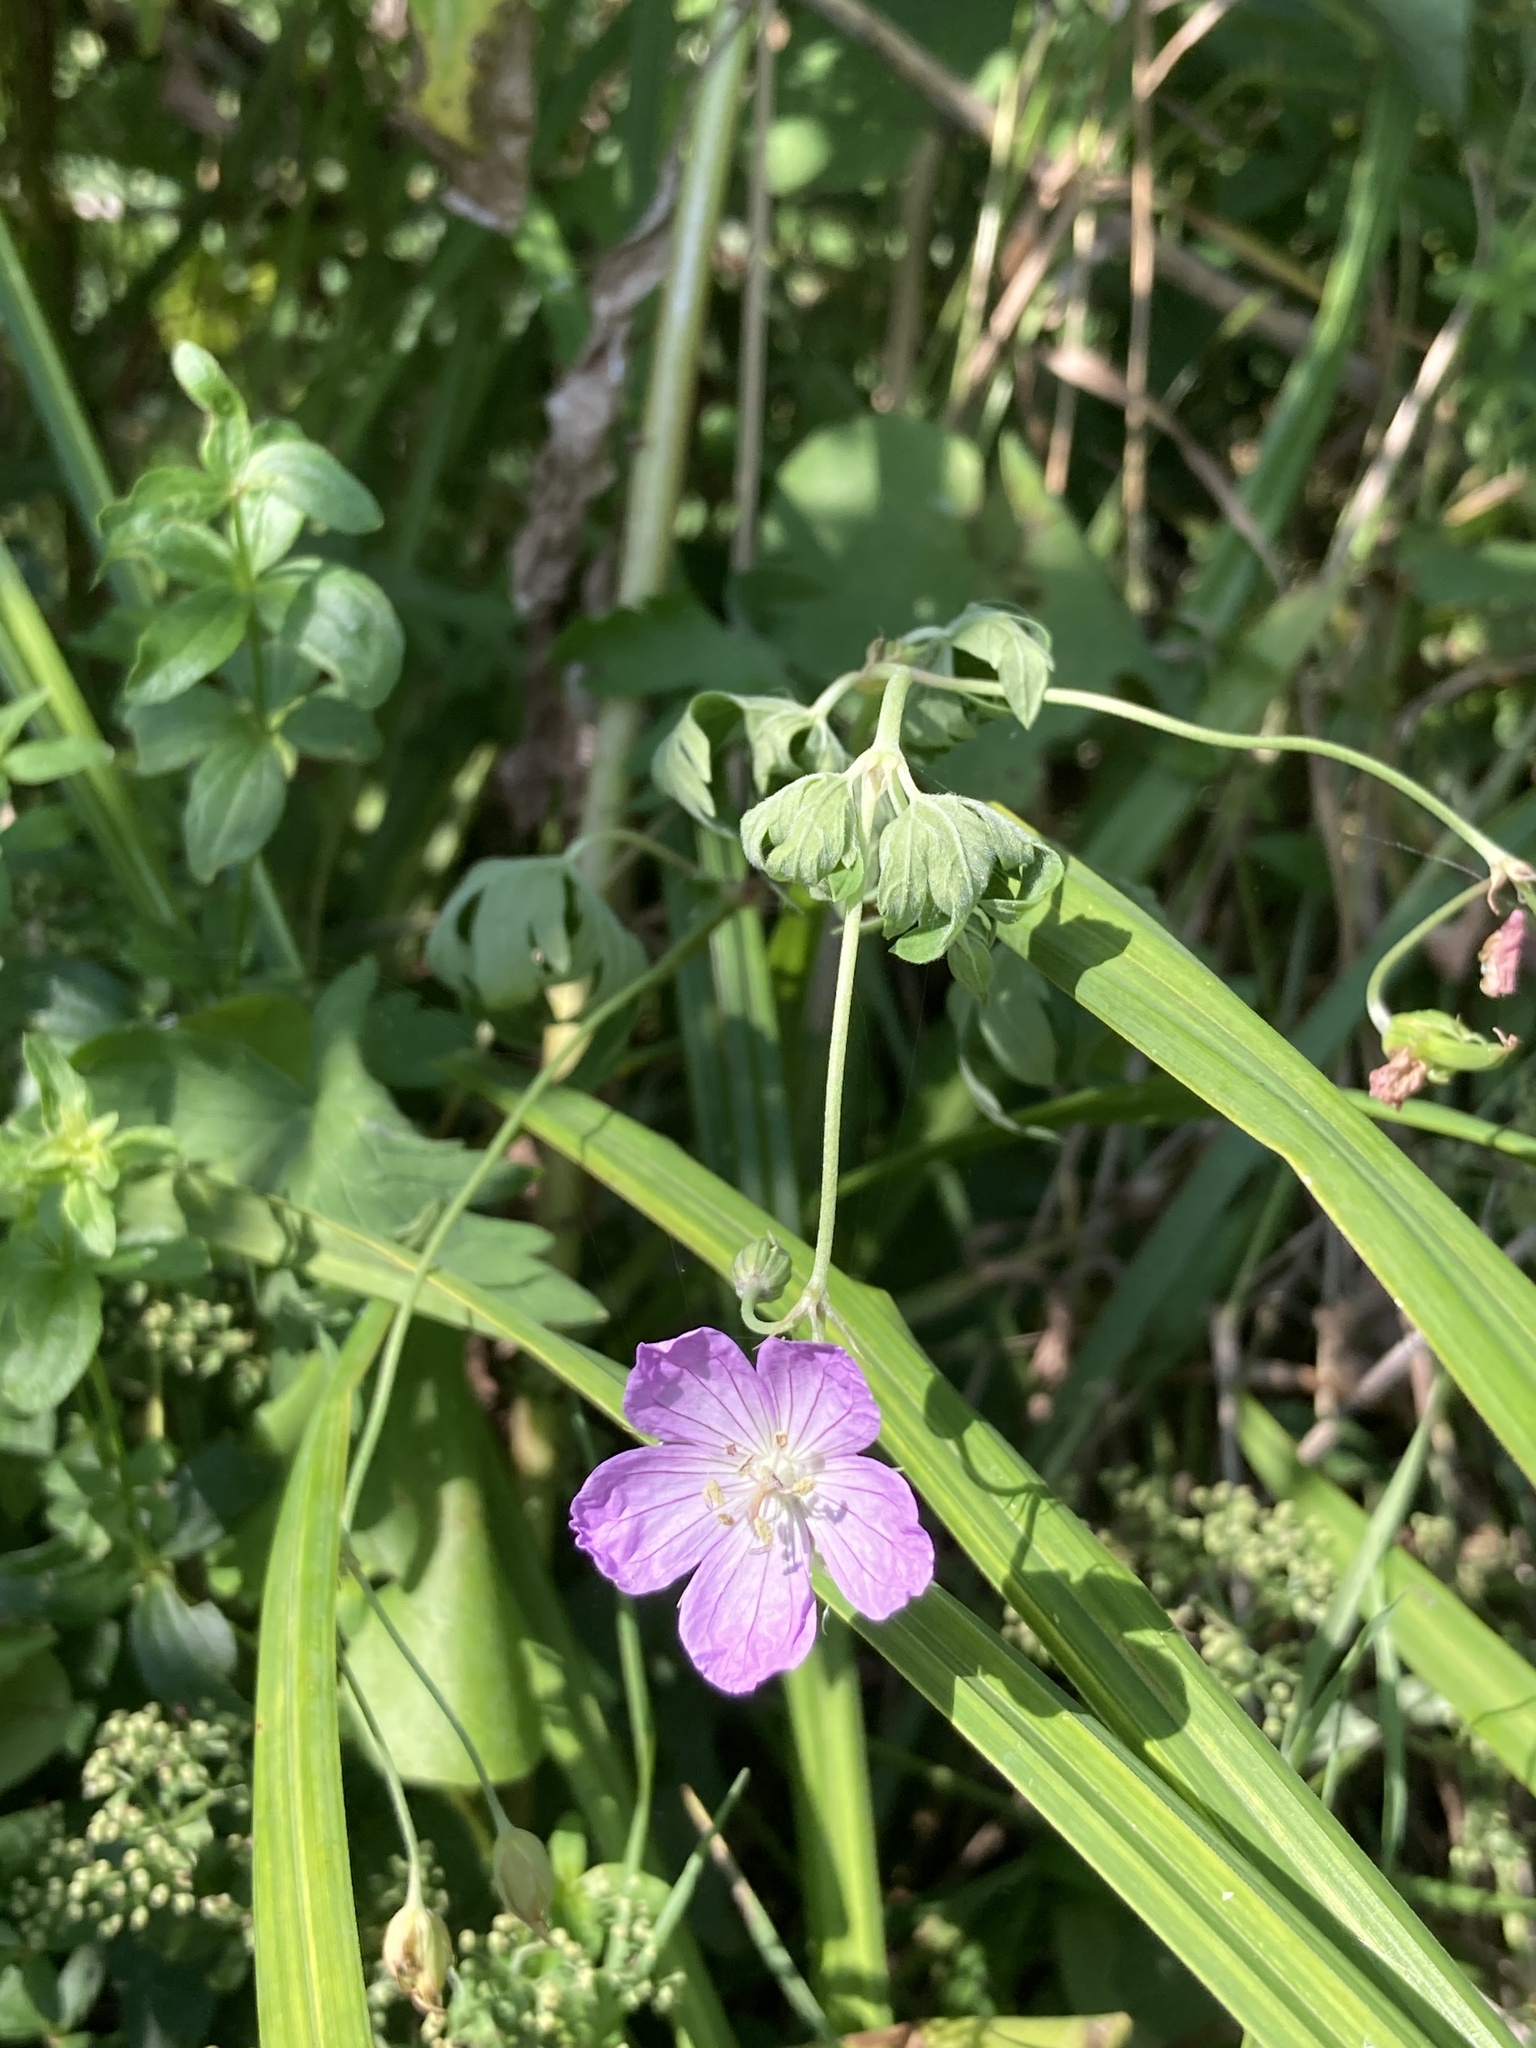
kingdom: Plantae
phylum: Tracheophyta
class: Magnoliopsida
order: Geraniales
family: Geraniaceae
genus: Geranium
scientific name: Geranium collinum
